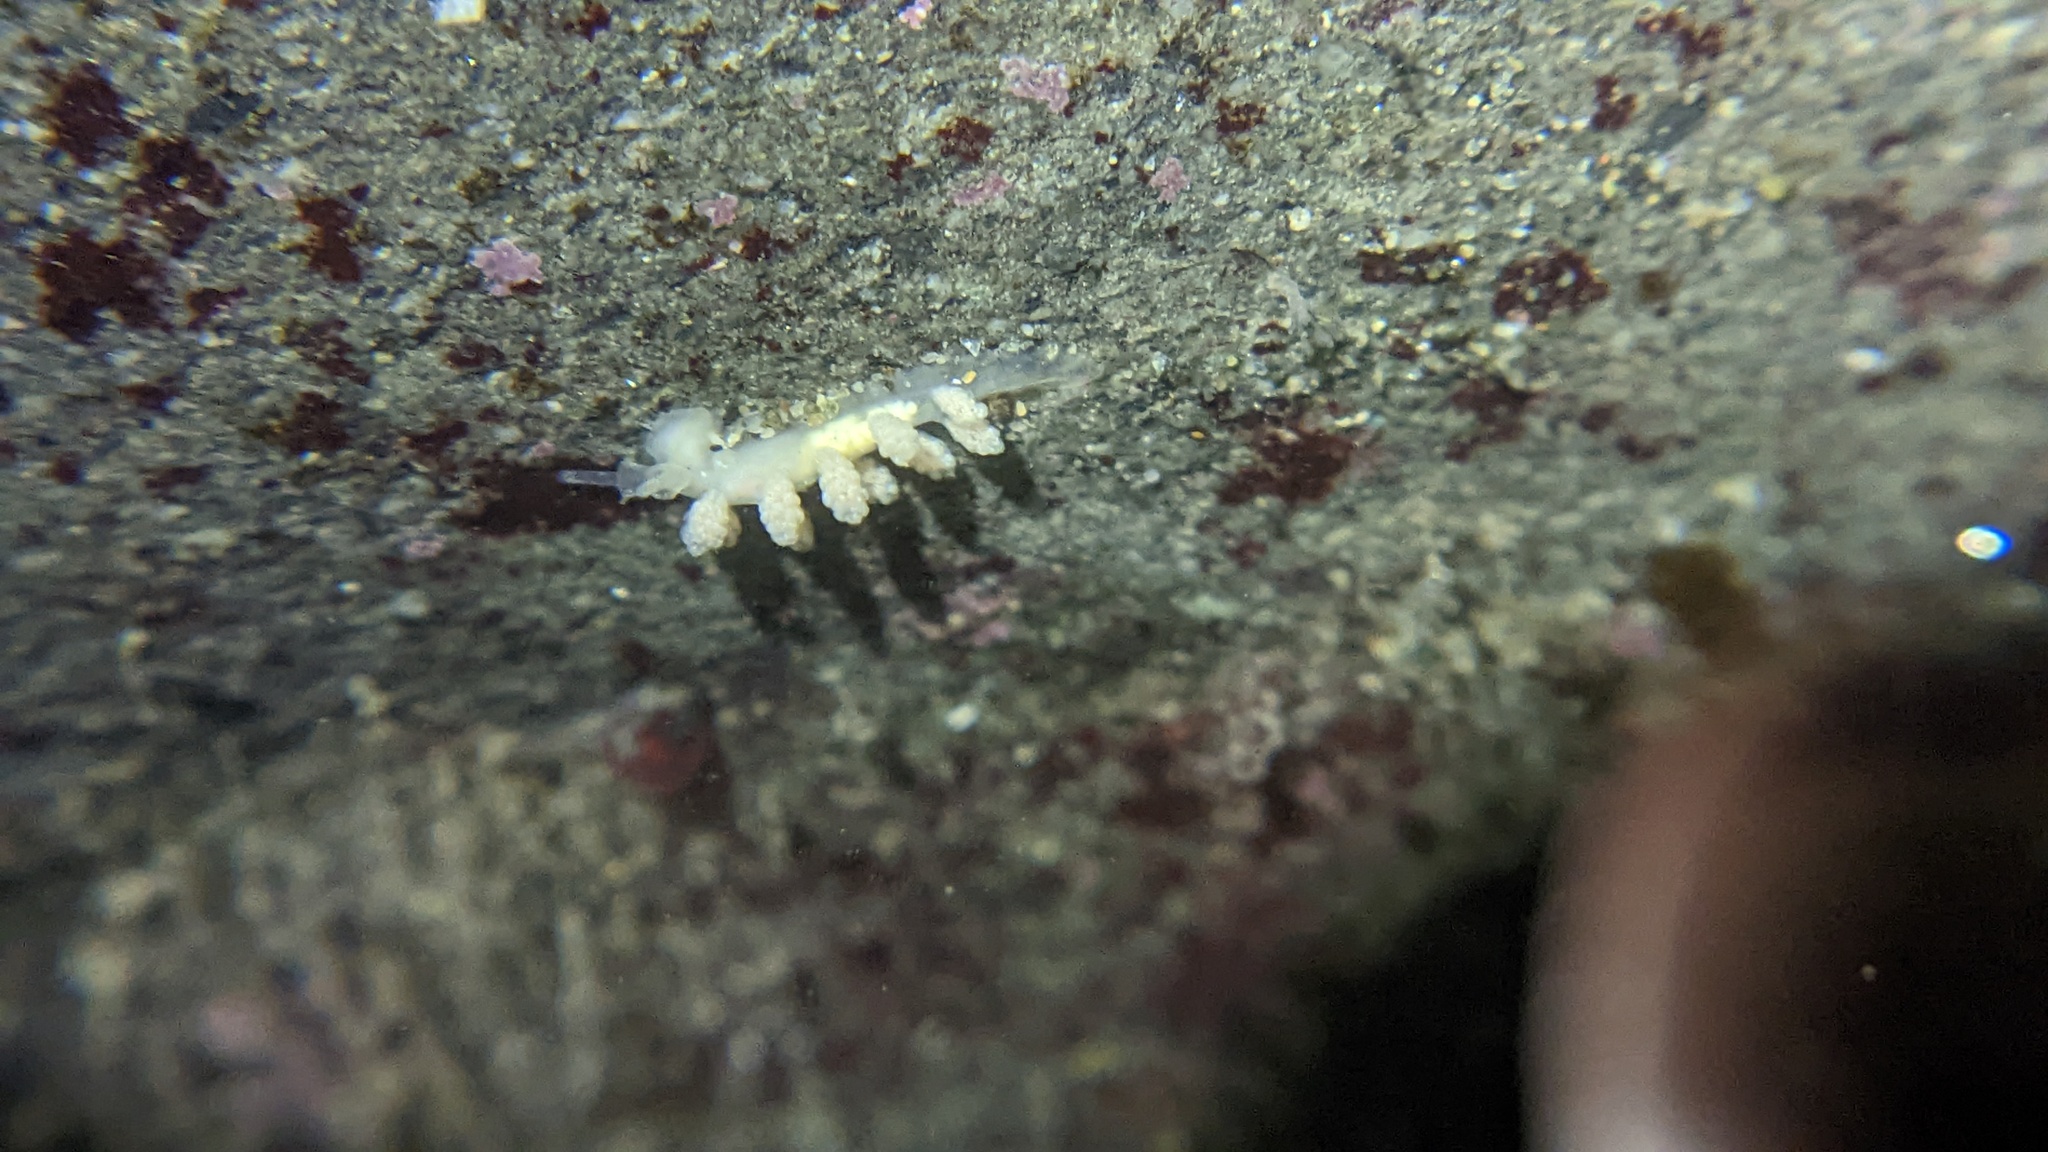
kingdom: Animalia
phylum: Mollusca
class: Gastropoda
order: Nudibranchia
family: Dotidae
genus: Doto
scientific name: Doto amyra
